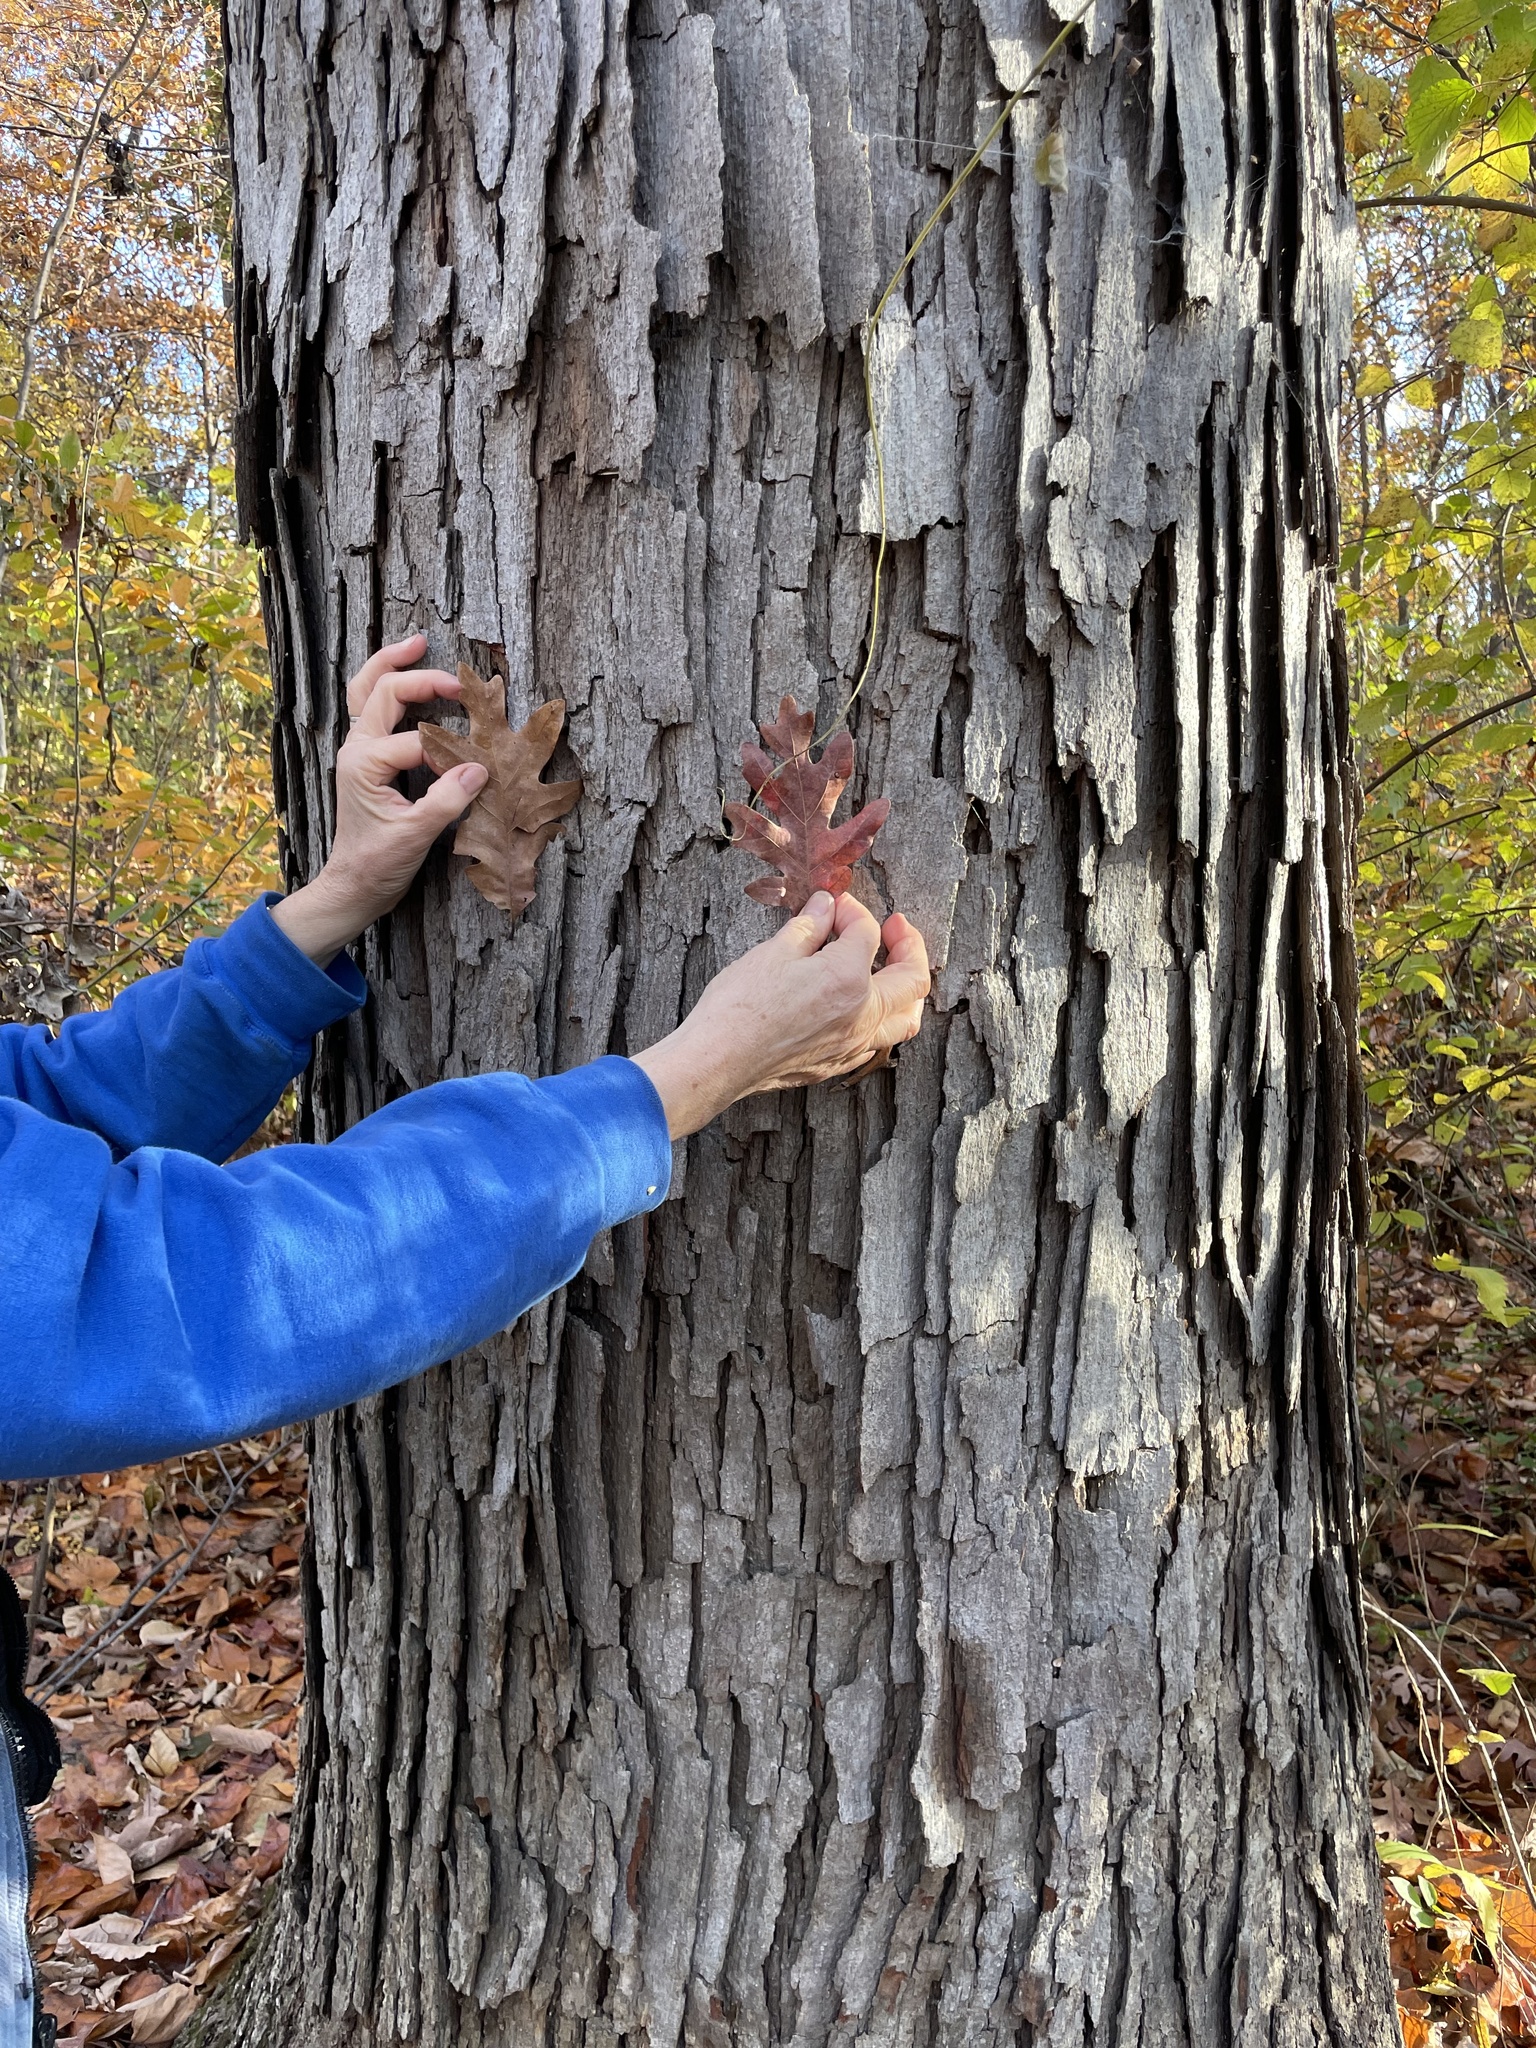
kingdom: Plantae
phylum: Tracheophyta
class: Magnoliopsida
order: Fagales
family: Fagaceae
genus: Quercus
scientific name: Quercus alba
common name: White oak
